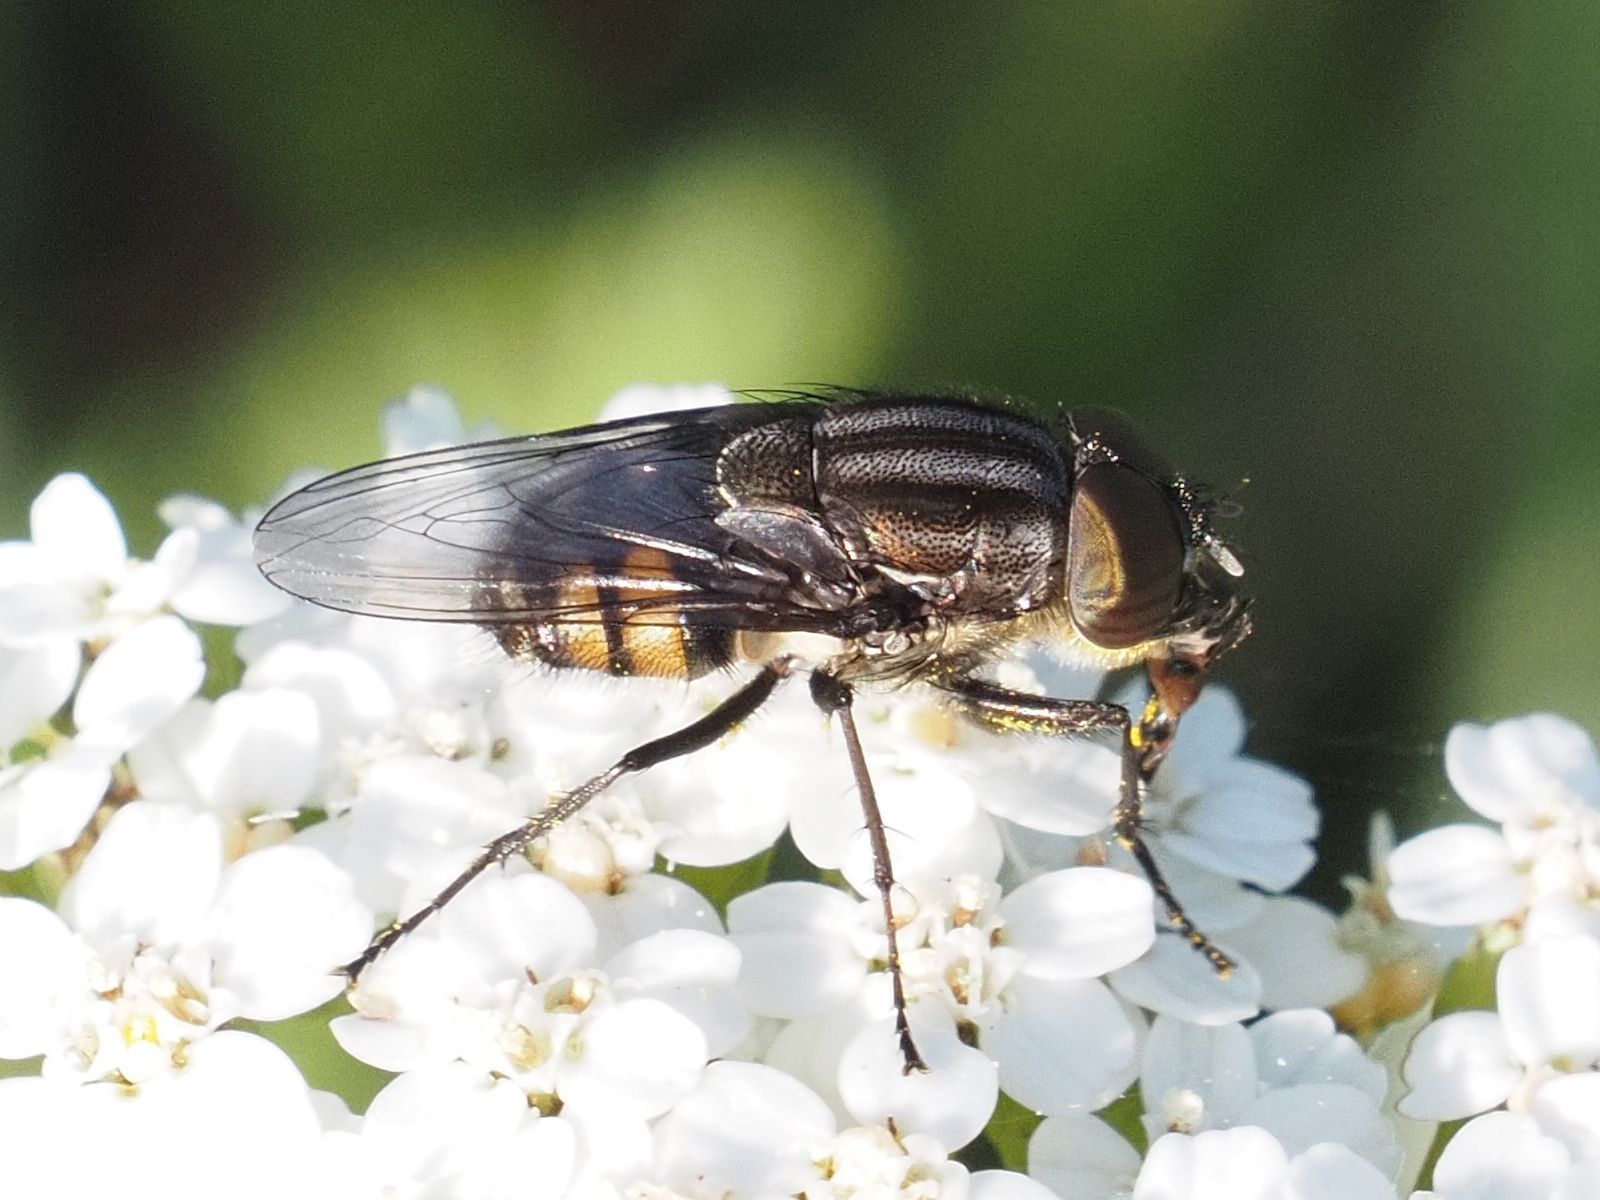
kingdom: Animalia
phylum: Arthropoda
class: Insecta
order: Diptera
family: Calliphoridae
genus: Stomorhina
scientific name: Stomorhina lunata
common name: Locust blowfly
